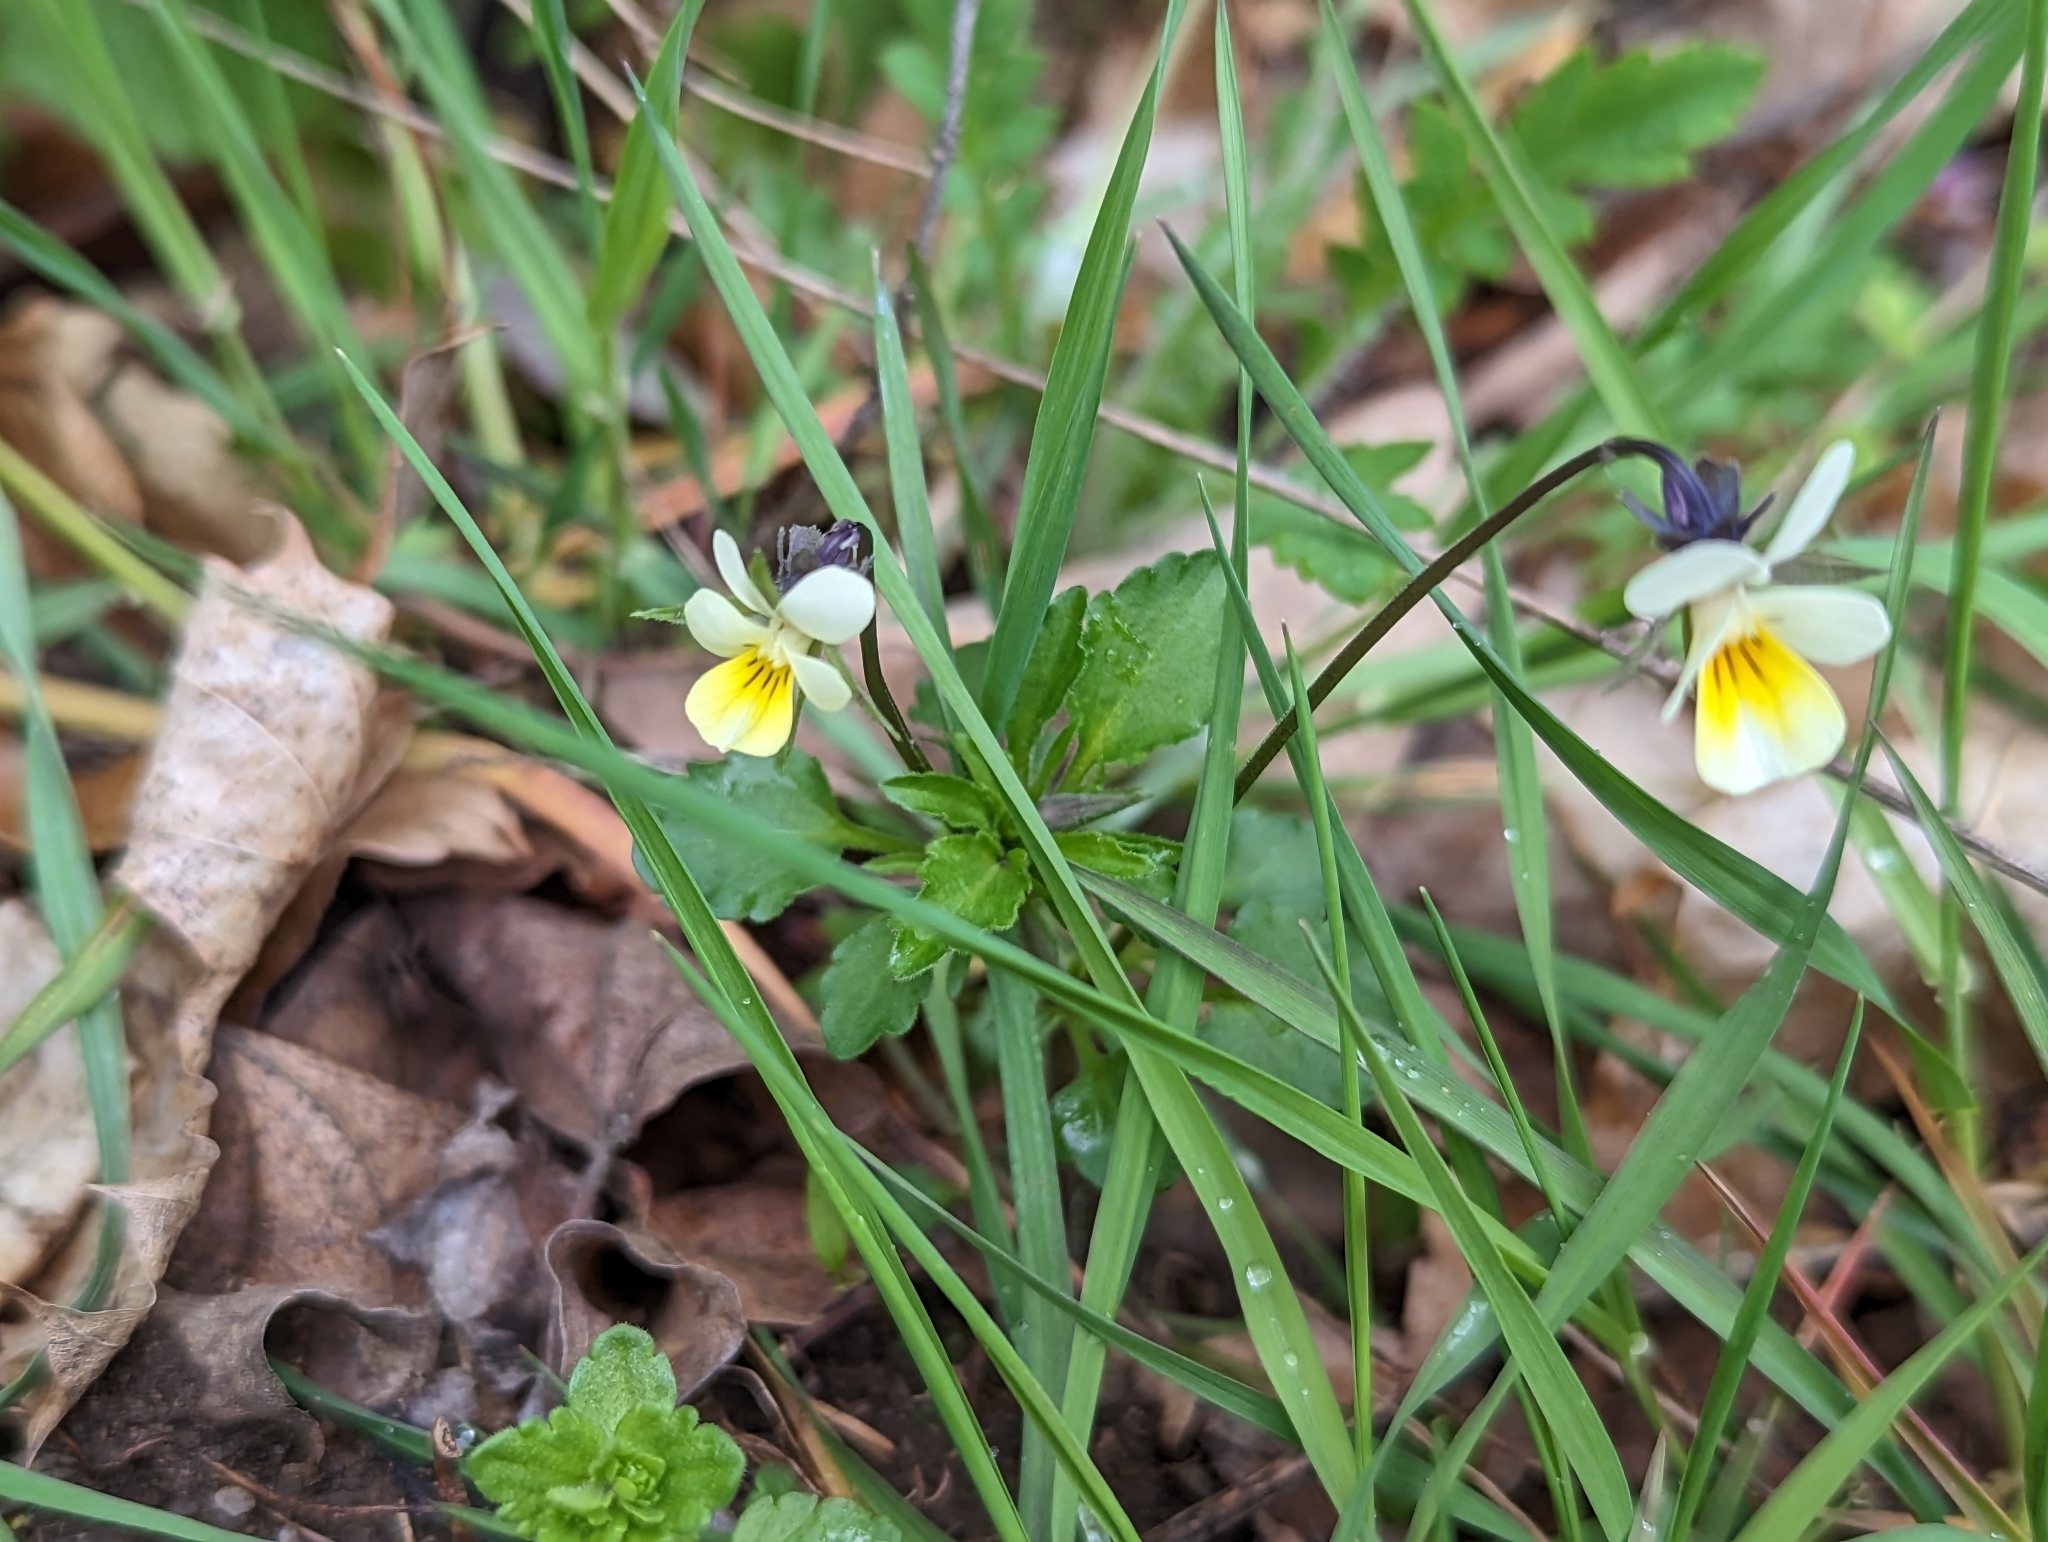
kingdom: Plantae
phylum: Tracheophyta
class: Magnoliopsida
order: Malpighiales
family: Violaceae
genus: Viola
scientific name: Viola arvensis
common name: Field pansy
